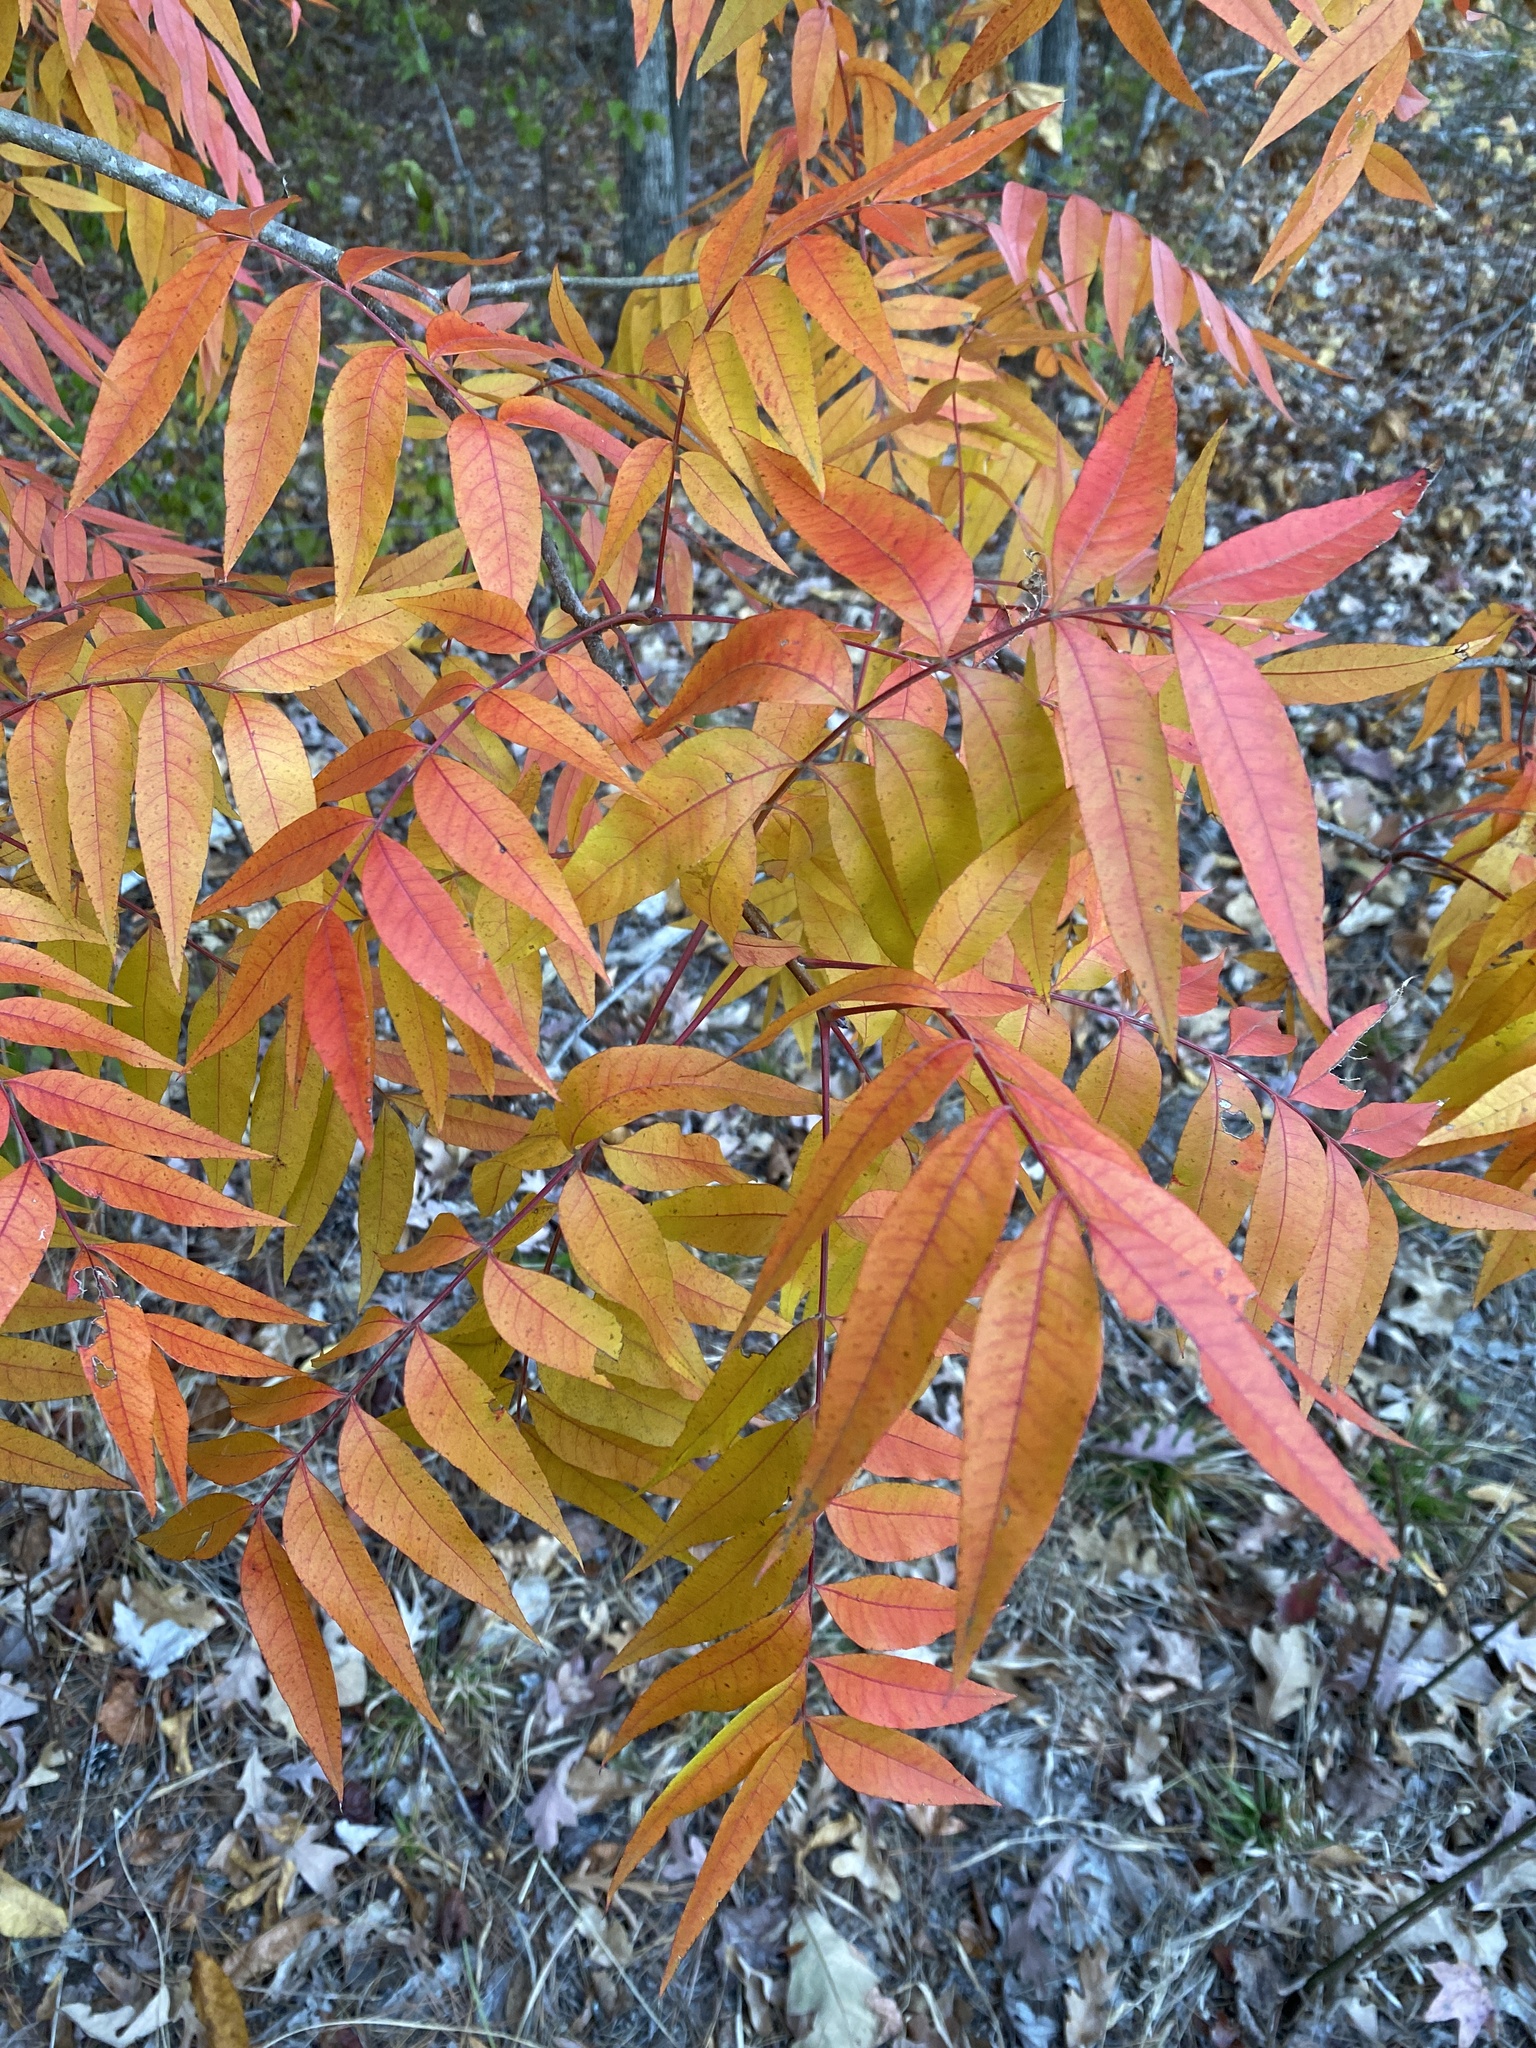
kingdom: Plantae
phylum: Tracheophyta
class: Magnoliopsida
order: Sapindales
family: Anacardiaceae
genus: Pistacia
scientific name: Pistacia chinensis
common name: Chinese pistache
